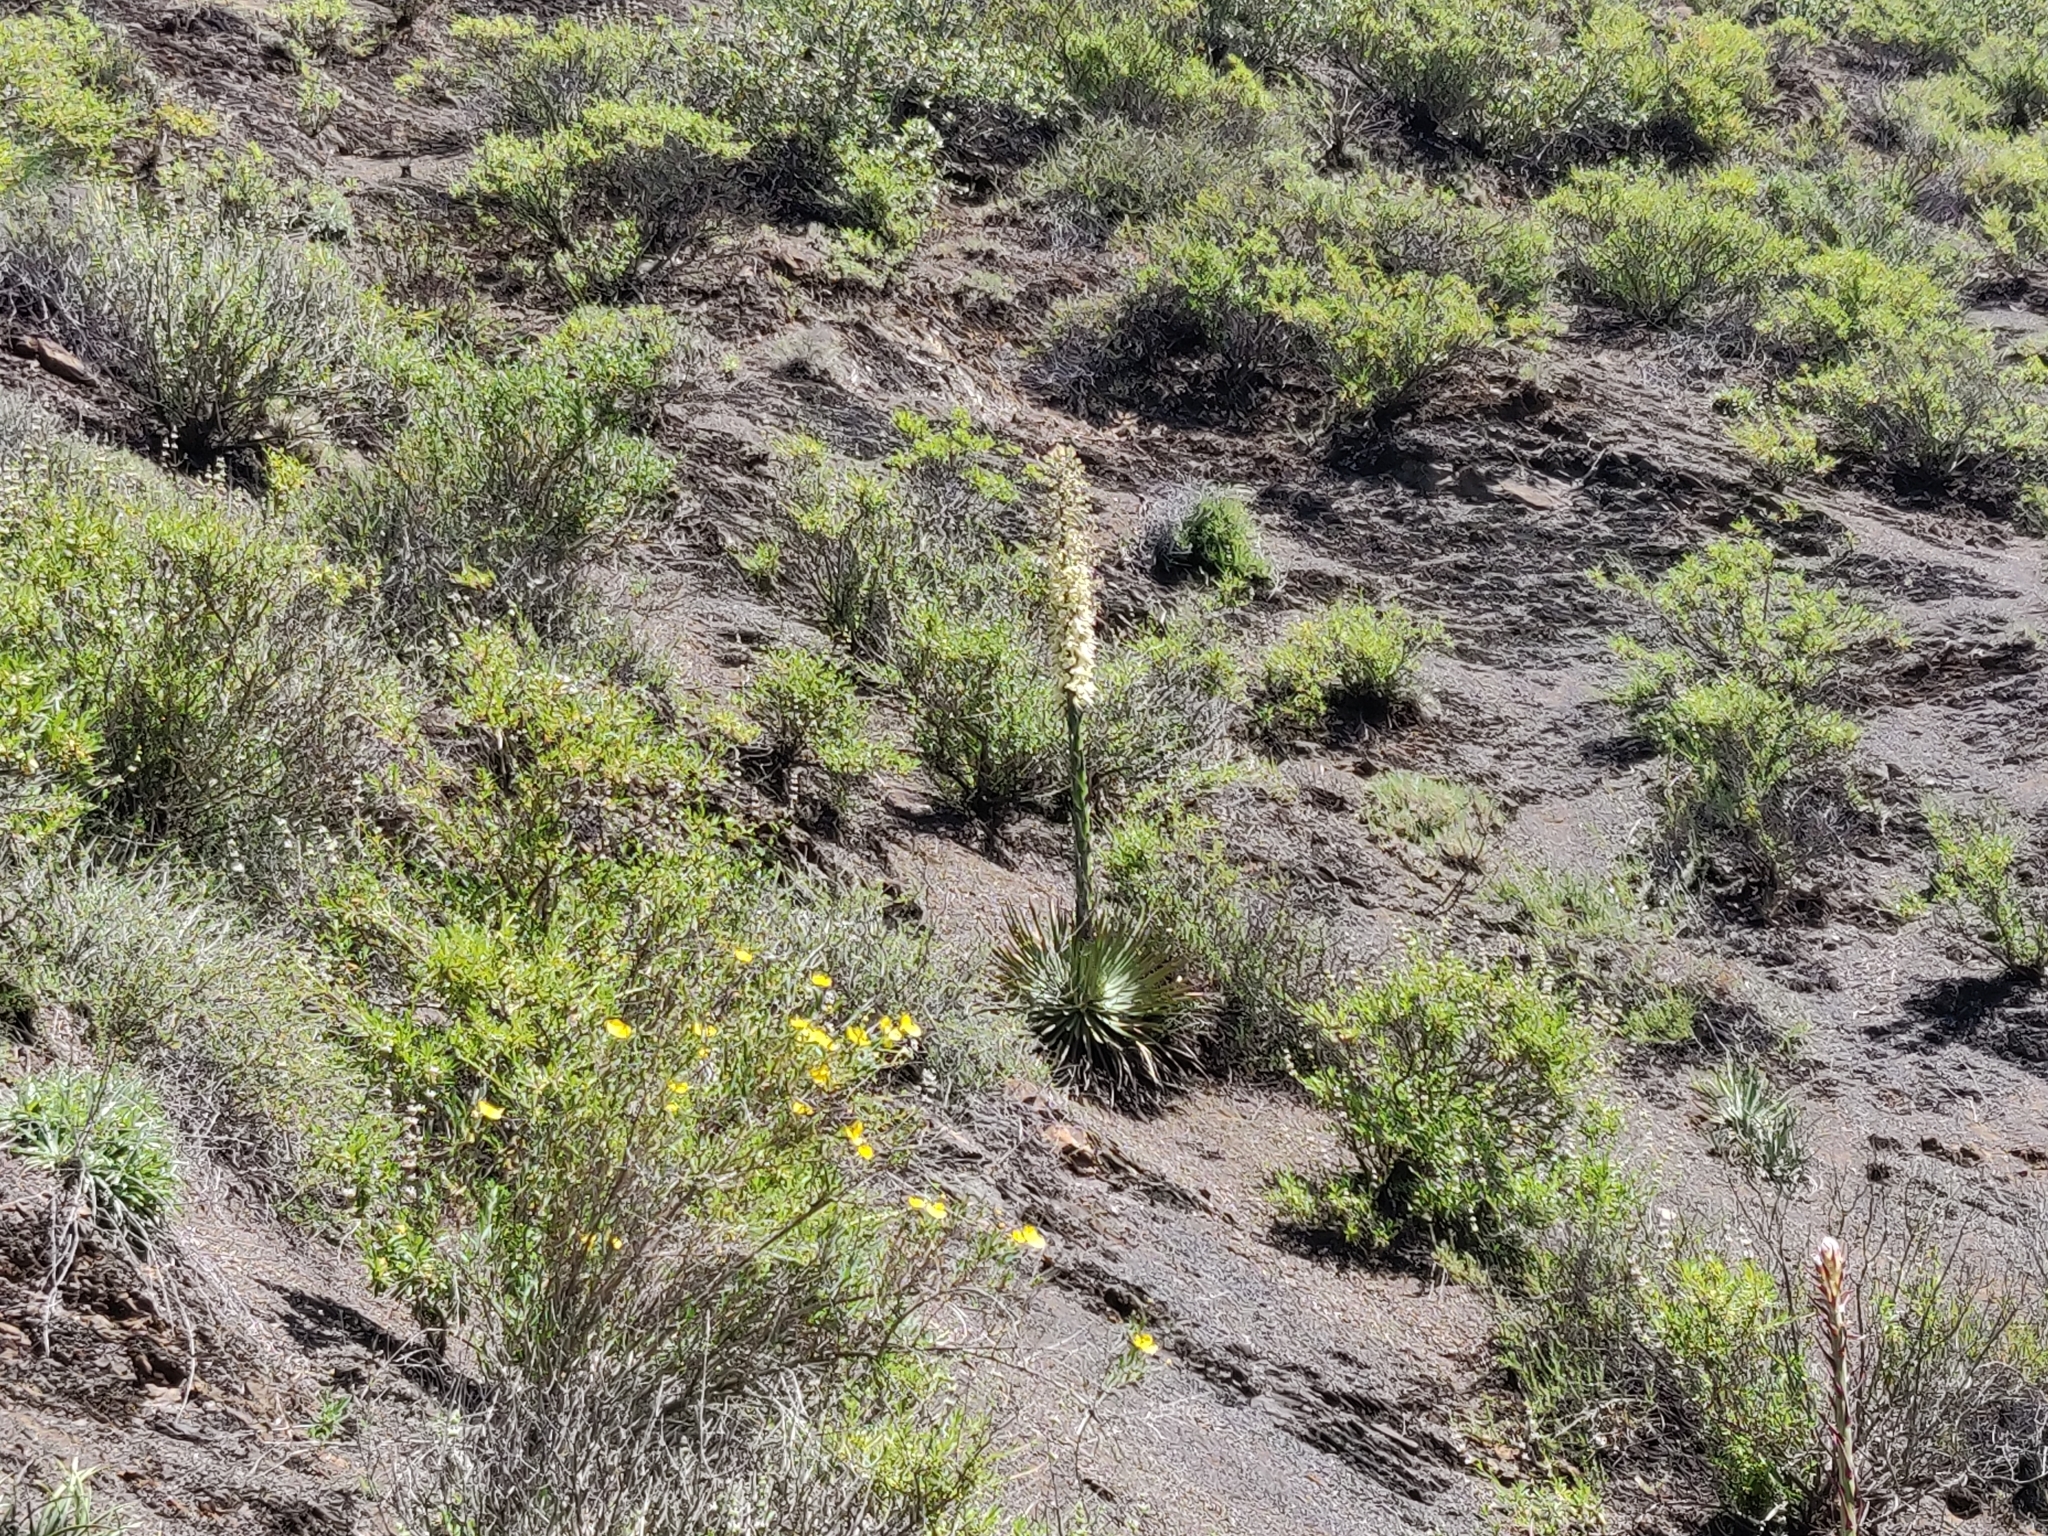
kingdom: Plantae
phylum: Tracheophyta
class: Liliopsida
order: Asparagales
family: Asparagaceae
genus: Hesperoyucca
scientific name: Hesperoyucca whipplei
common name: Our lord's-candle
